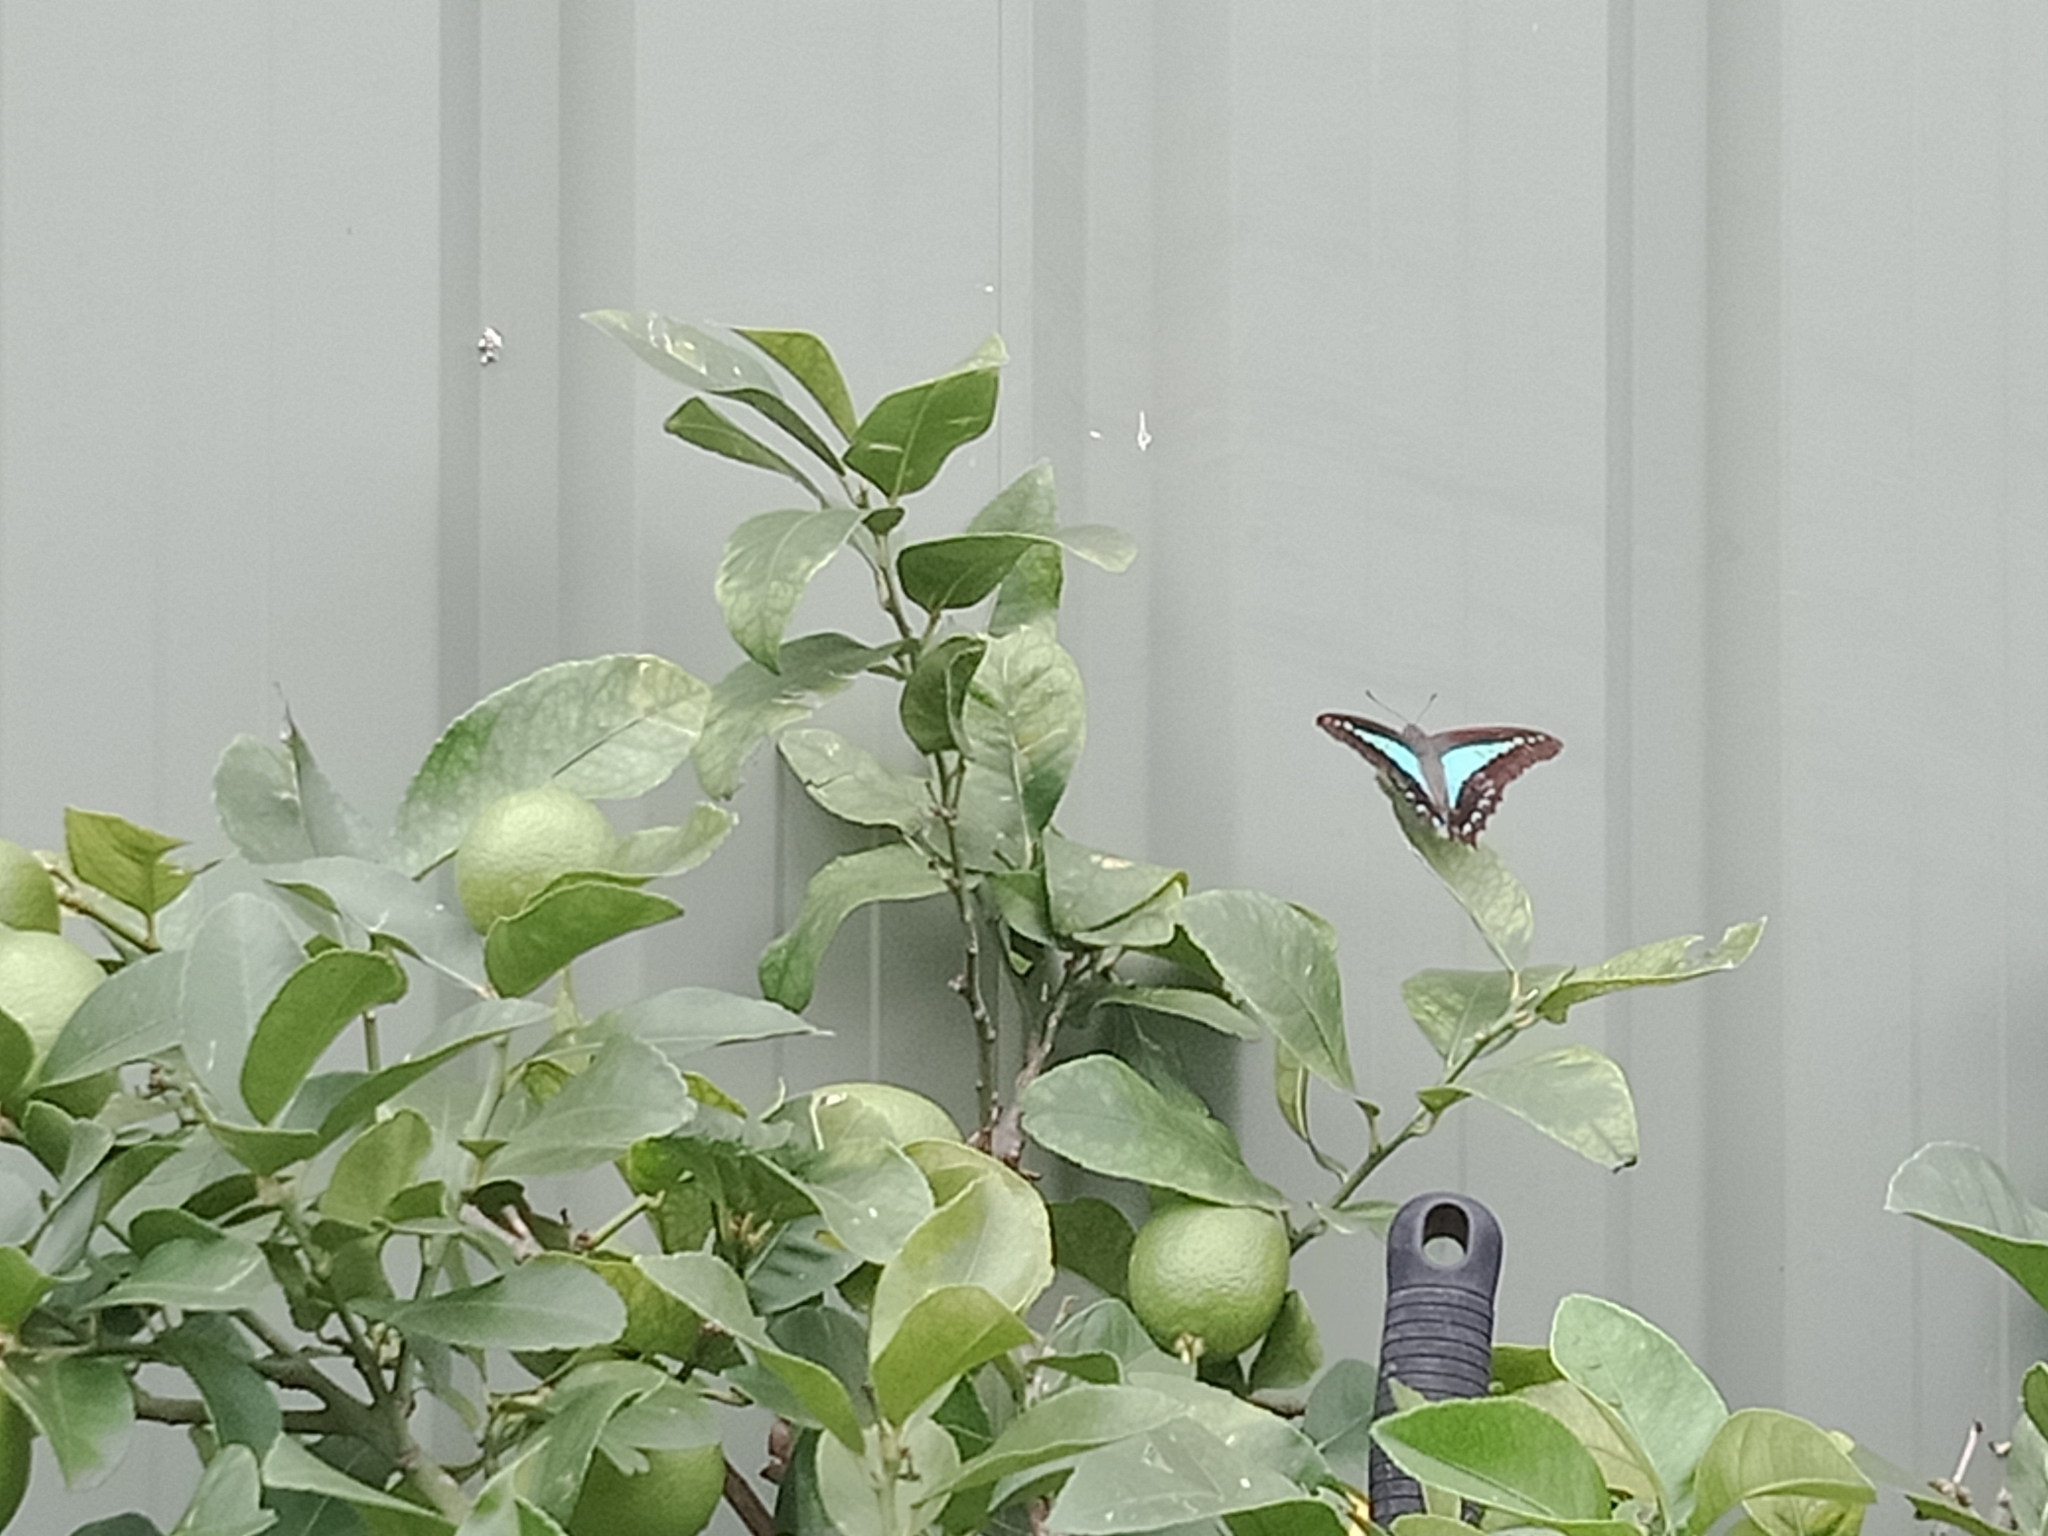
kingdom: Animalia
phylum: Arthropoda
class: Insecta
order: Lepidoptera
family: Papilionidae
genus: Graphium
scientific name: Graphium
